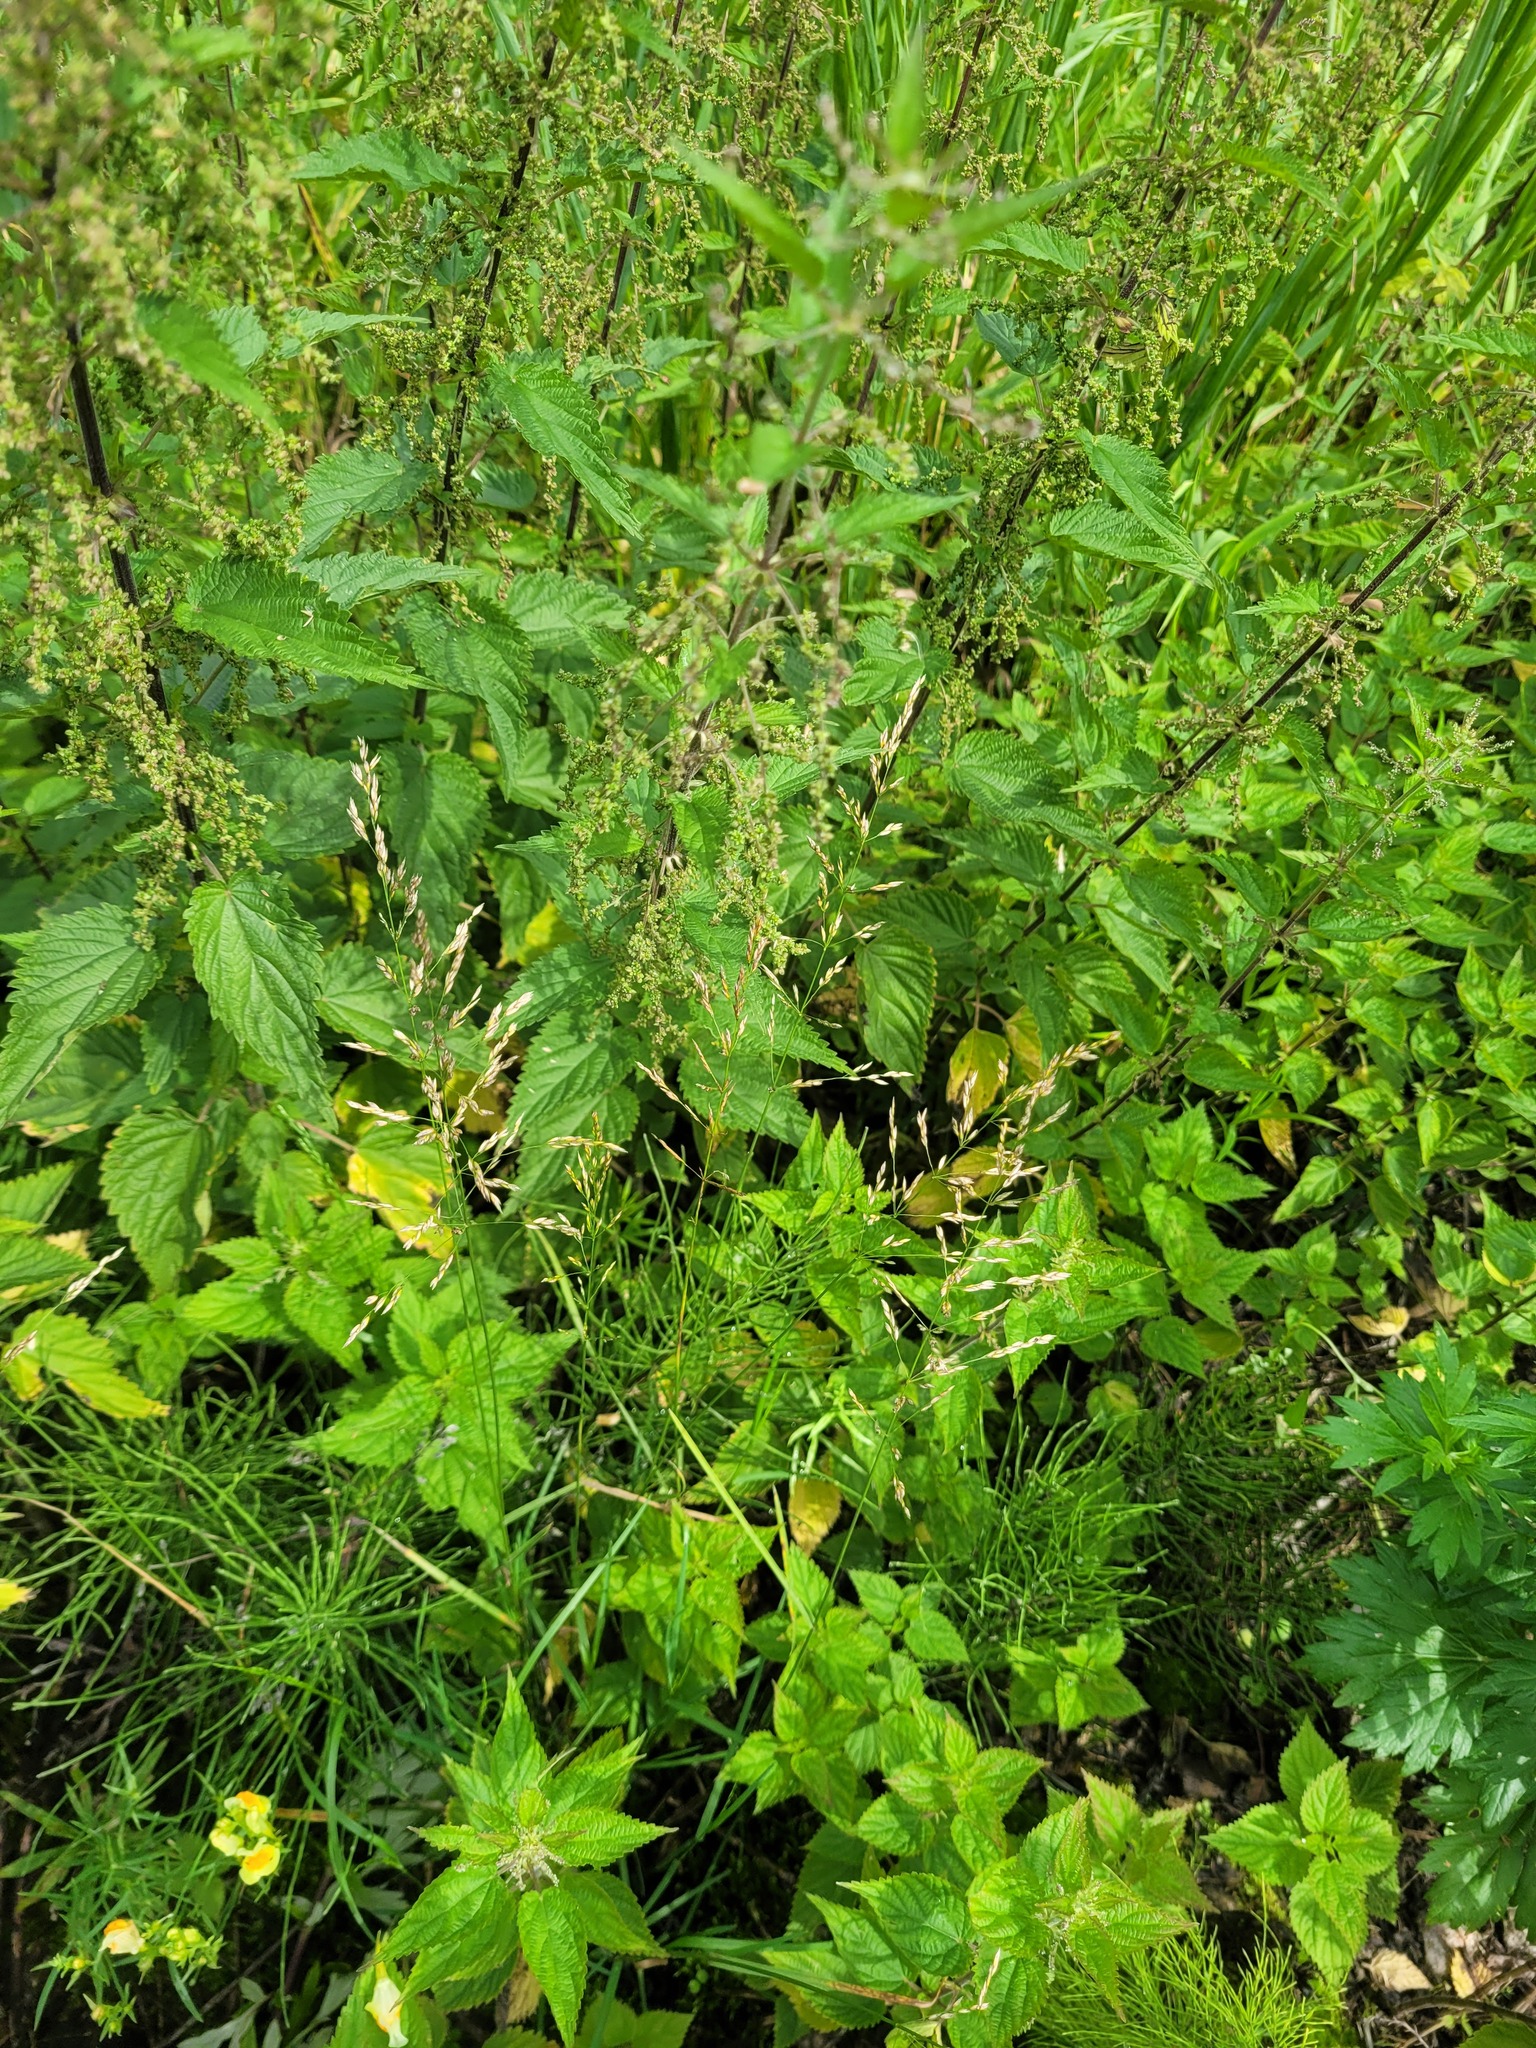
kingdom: Plantae
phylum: Tracheophyta
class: Liliopsida
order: Poales
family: Poaceae
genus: Poa
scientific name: Poa palustris
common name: Swamp meadow-grass
